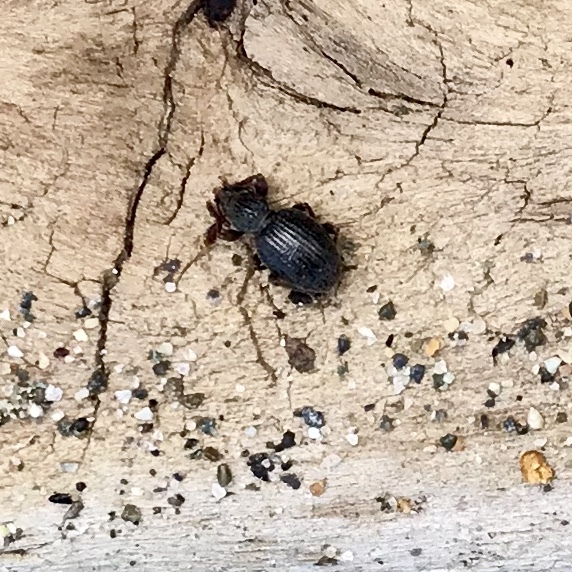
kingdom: Animalia
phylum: Arthropoda
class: Insecta
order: Coleoptera
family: Curculionidae
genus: Otiorhynchus
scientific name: Otiorhynchus ovatus
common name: Strawberry root weevil
